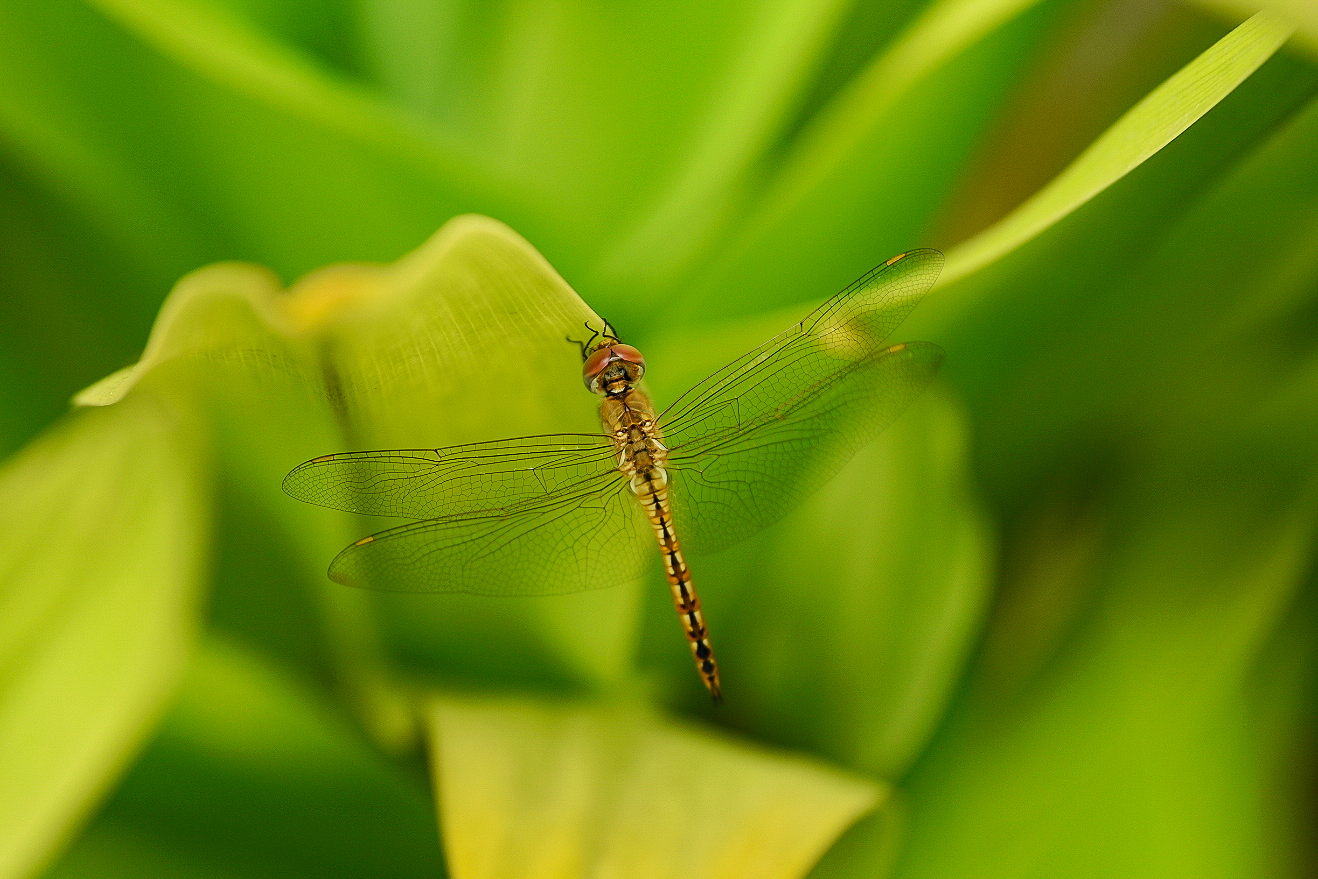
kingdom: Animalia
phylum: Arthropoda
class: Insecta
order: Odonata
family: Libellulidae
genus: Pantala
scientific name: Pantala flavescens
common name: Wandering glider
